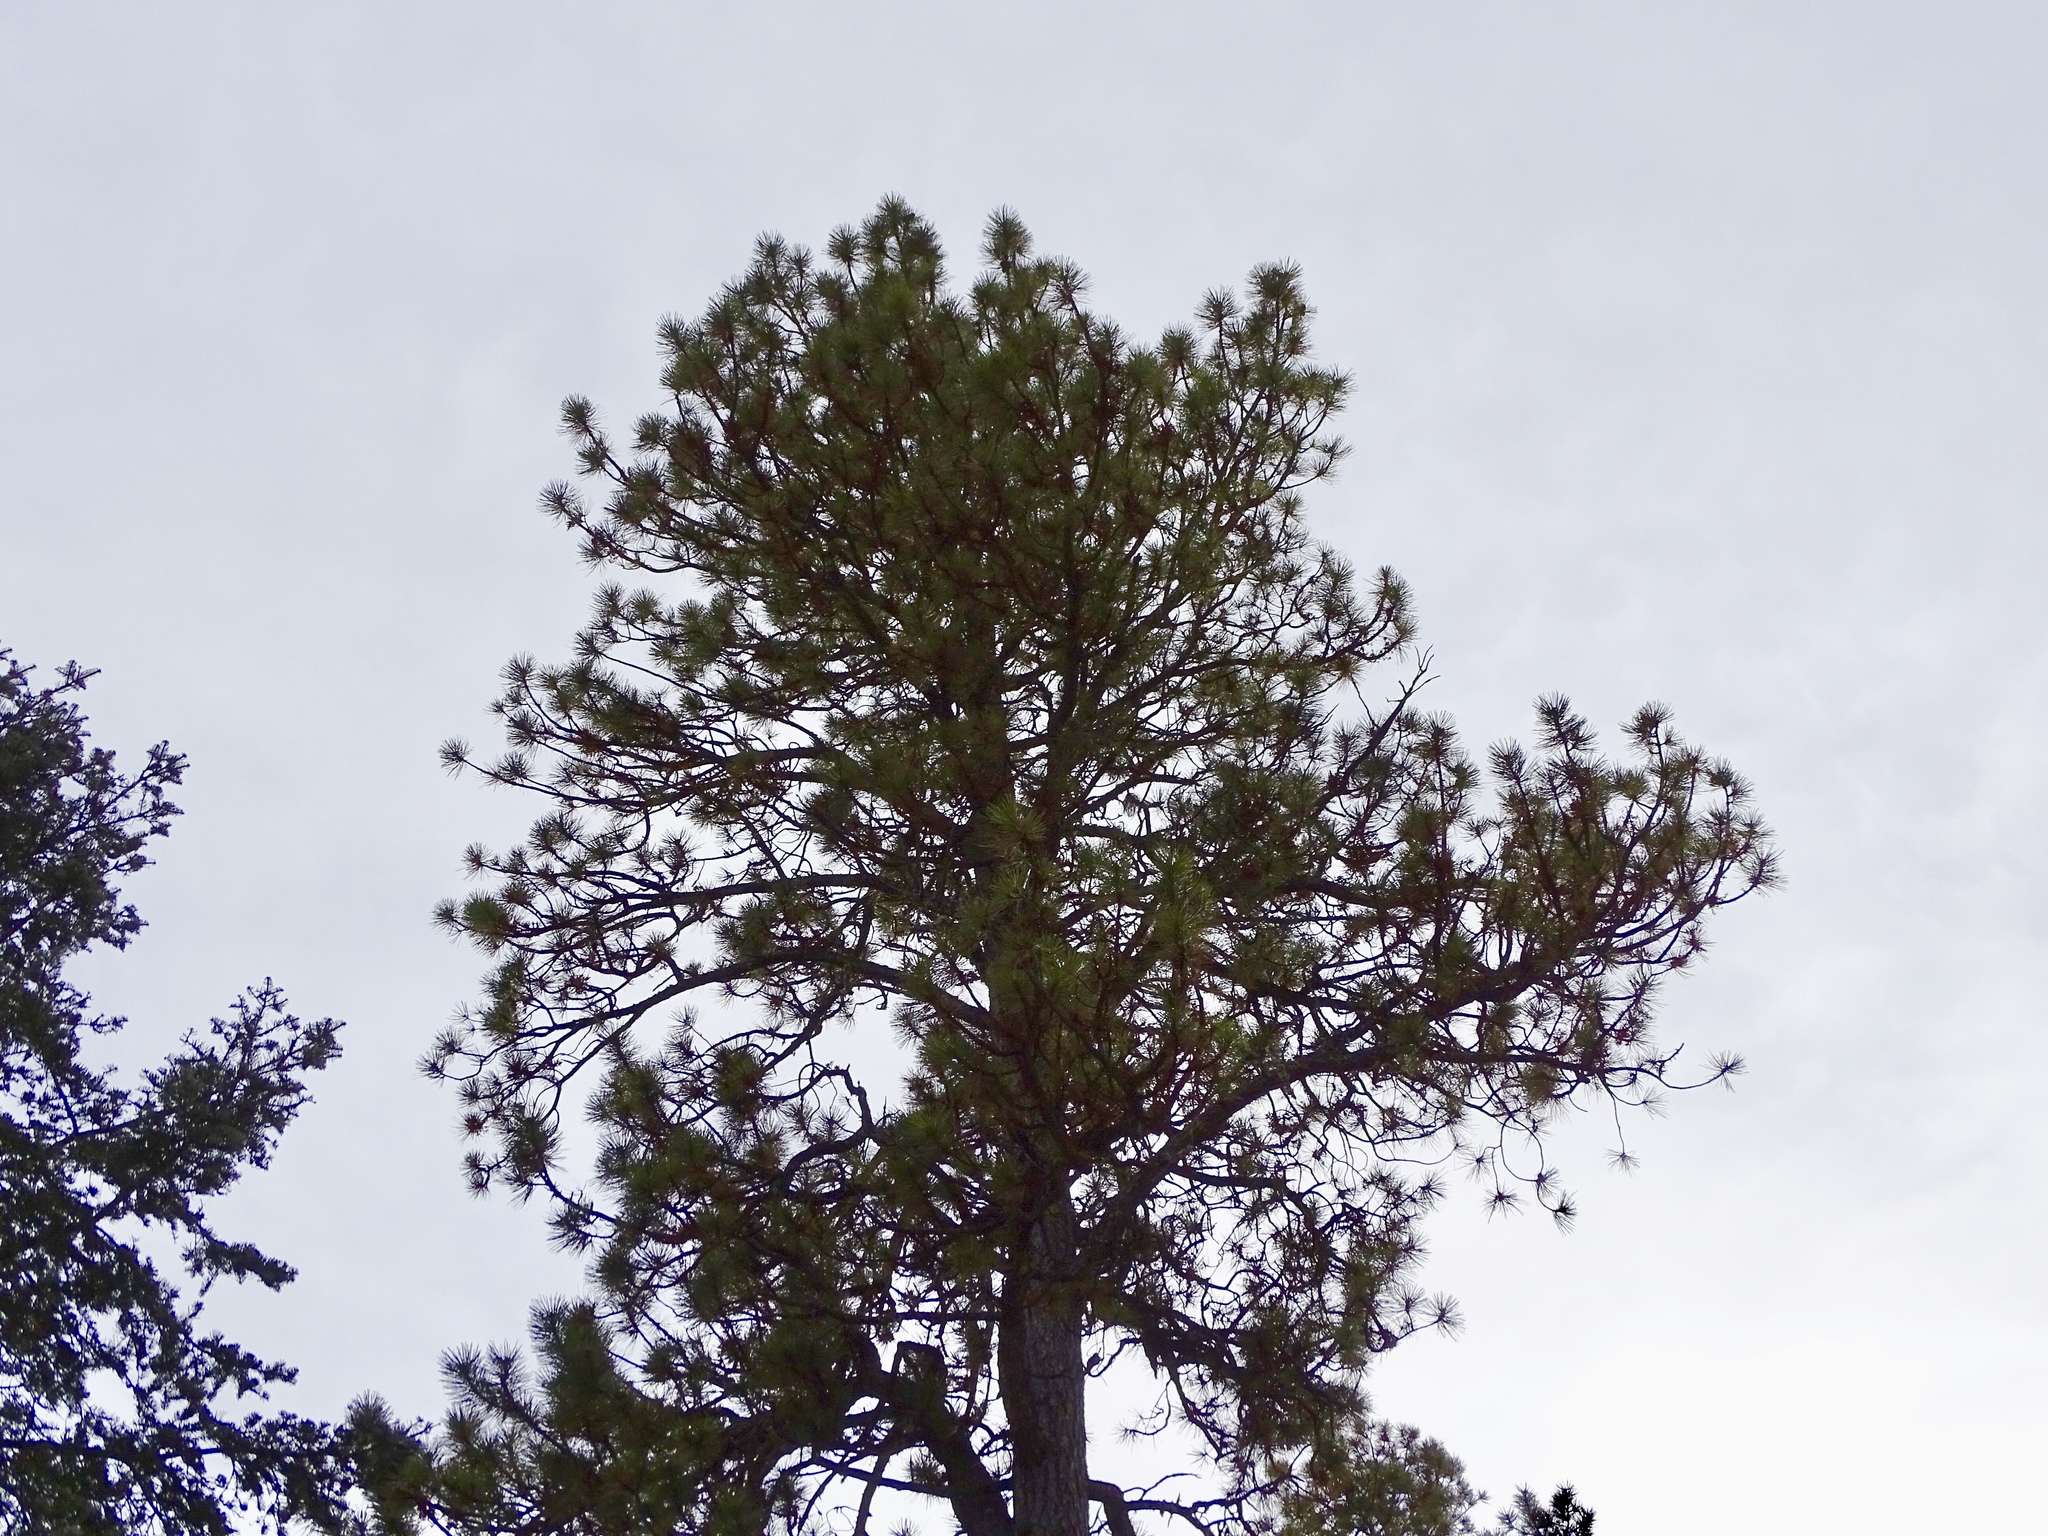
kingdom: Plantae
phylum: Tracheophyta
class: Pinopsida
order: Pinales
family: Pinaceae
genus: Pinus
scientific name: Pinus ponderosa
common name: Western yellow-pine
